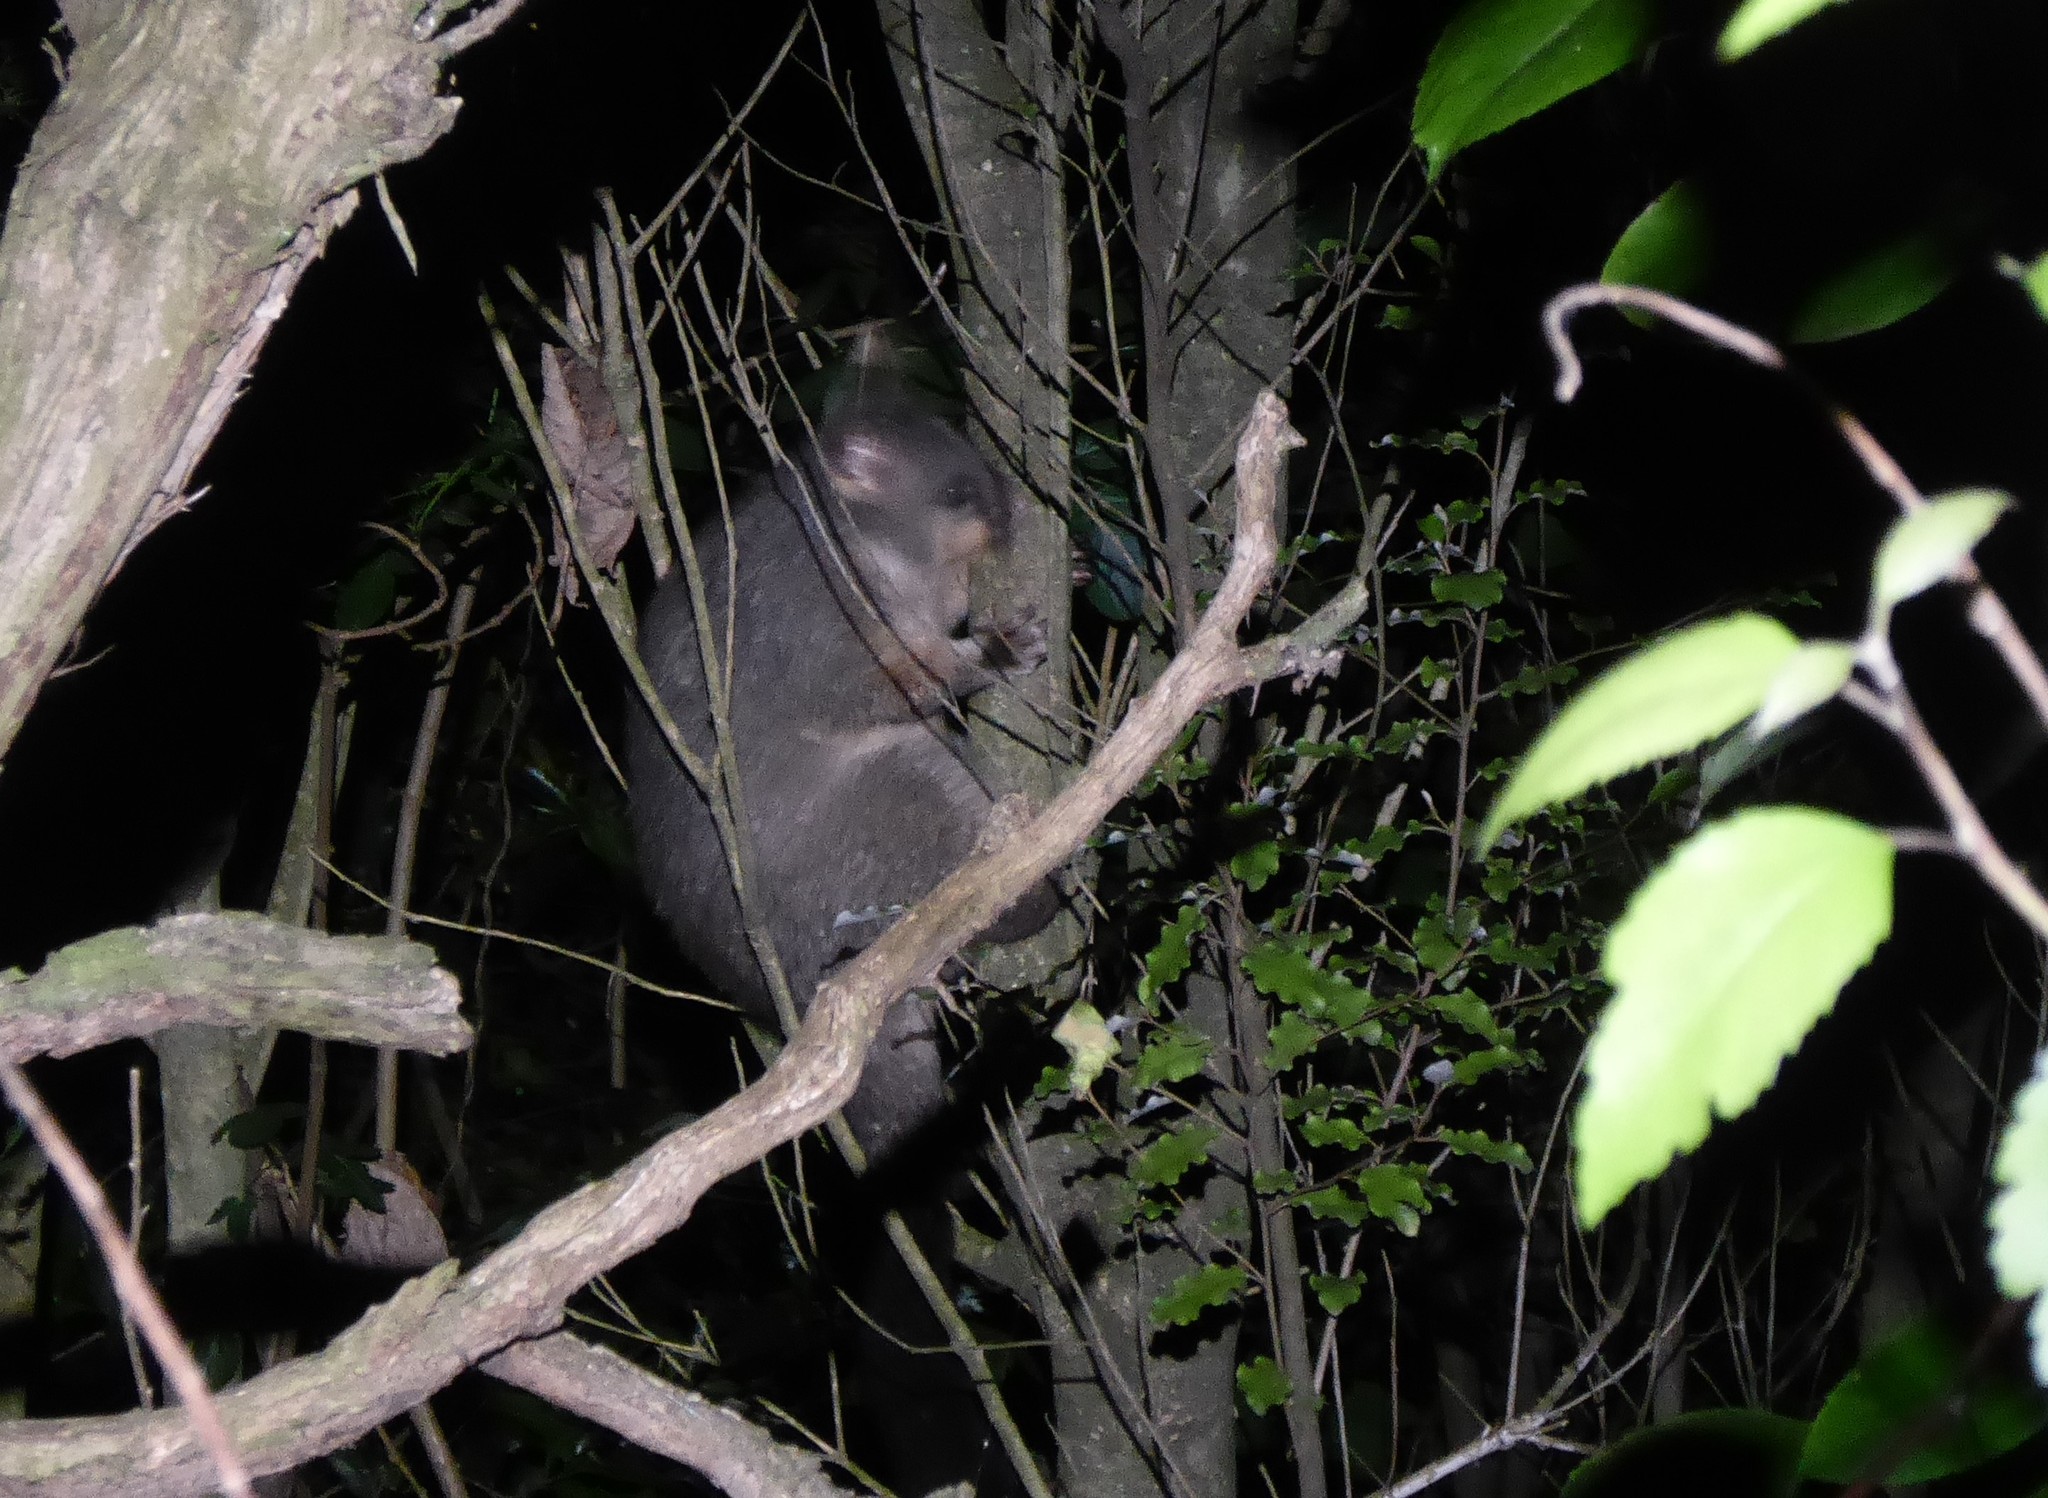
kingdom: Animalia
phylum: Chordata
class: Mammalia
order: Diprotodontia
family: Phalangeridae
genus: Trichosurus
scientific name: Trichosurus vulpecula
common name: Common brushtail
